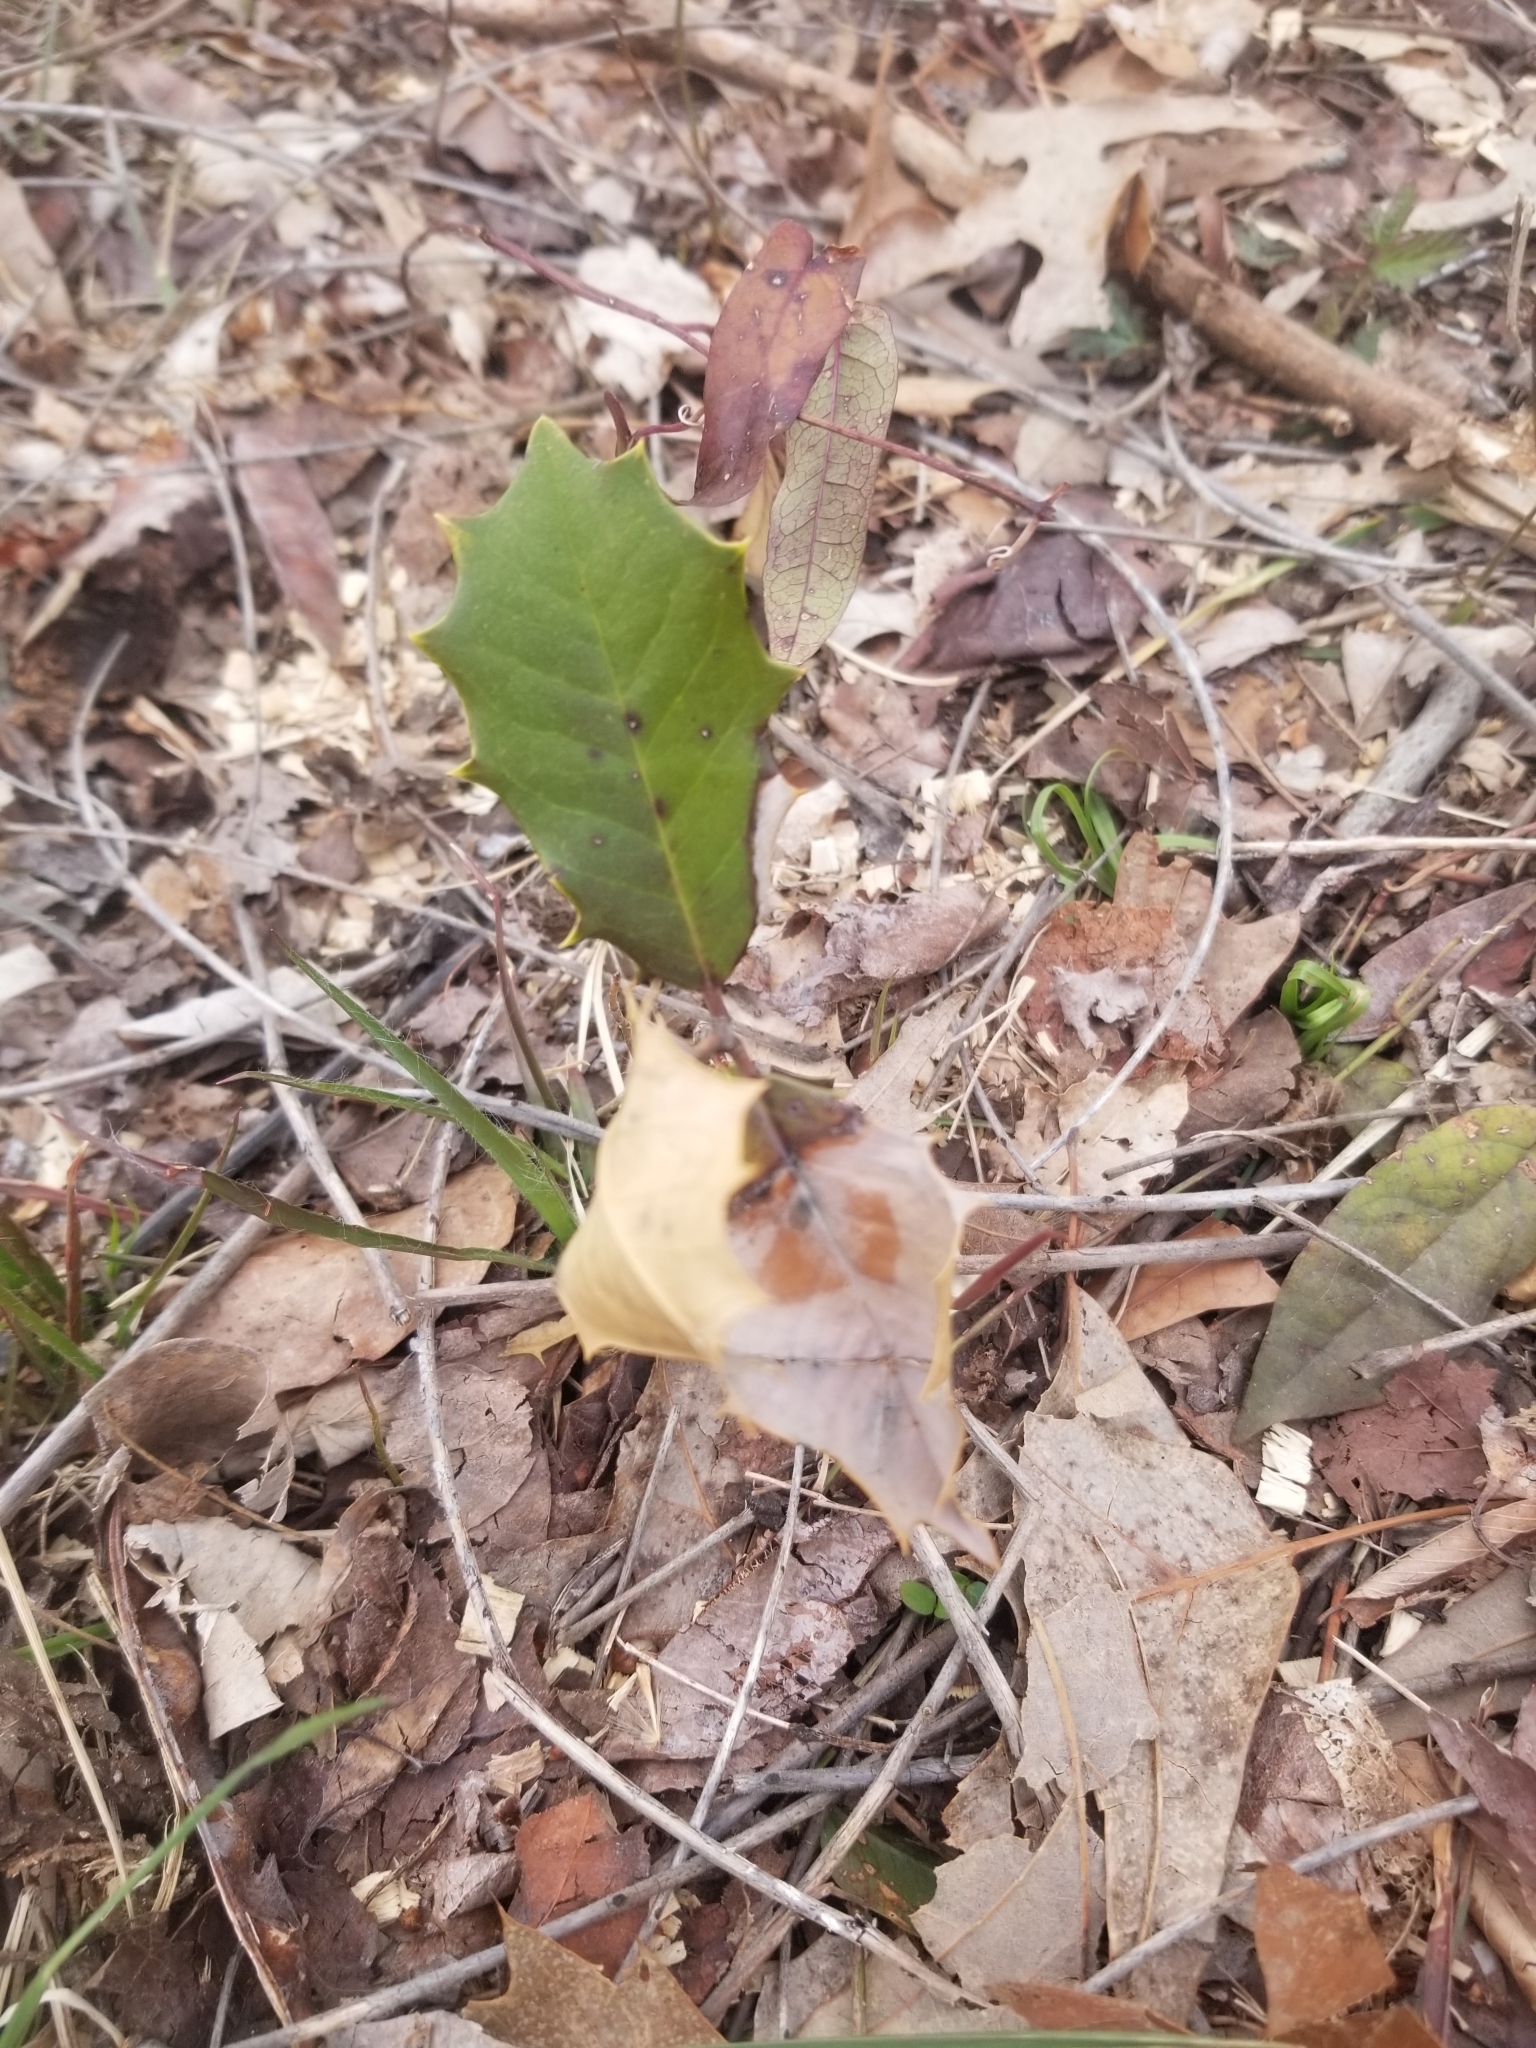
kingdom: Plantae
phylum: Tracheophyta
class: Magnoliopsida
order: Aquifoliales
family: Aquifoliaceae
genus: Ilex
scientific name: Ilex opaca
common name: American holly
